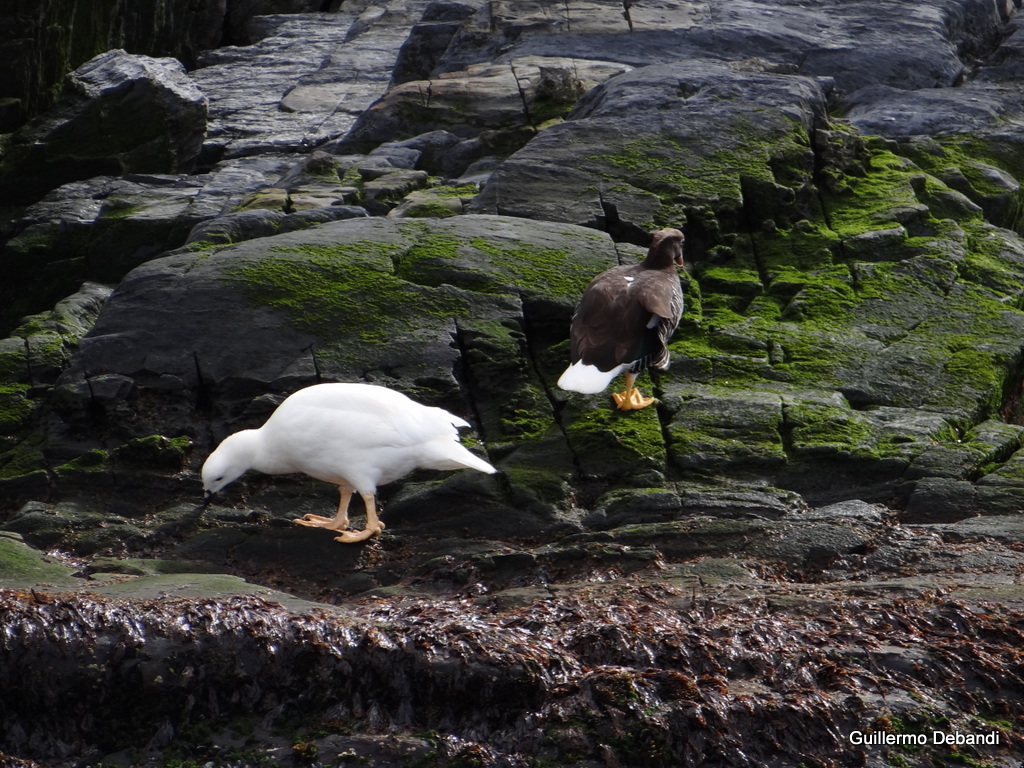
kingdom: Animalia
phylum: Chordata
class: Aves
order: Anseriformes
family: Anatidae
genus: Chloephaga
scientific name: Chloephaga hybrida
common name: Kelp goose
